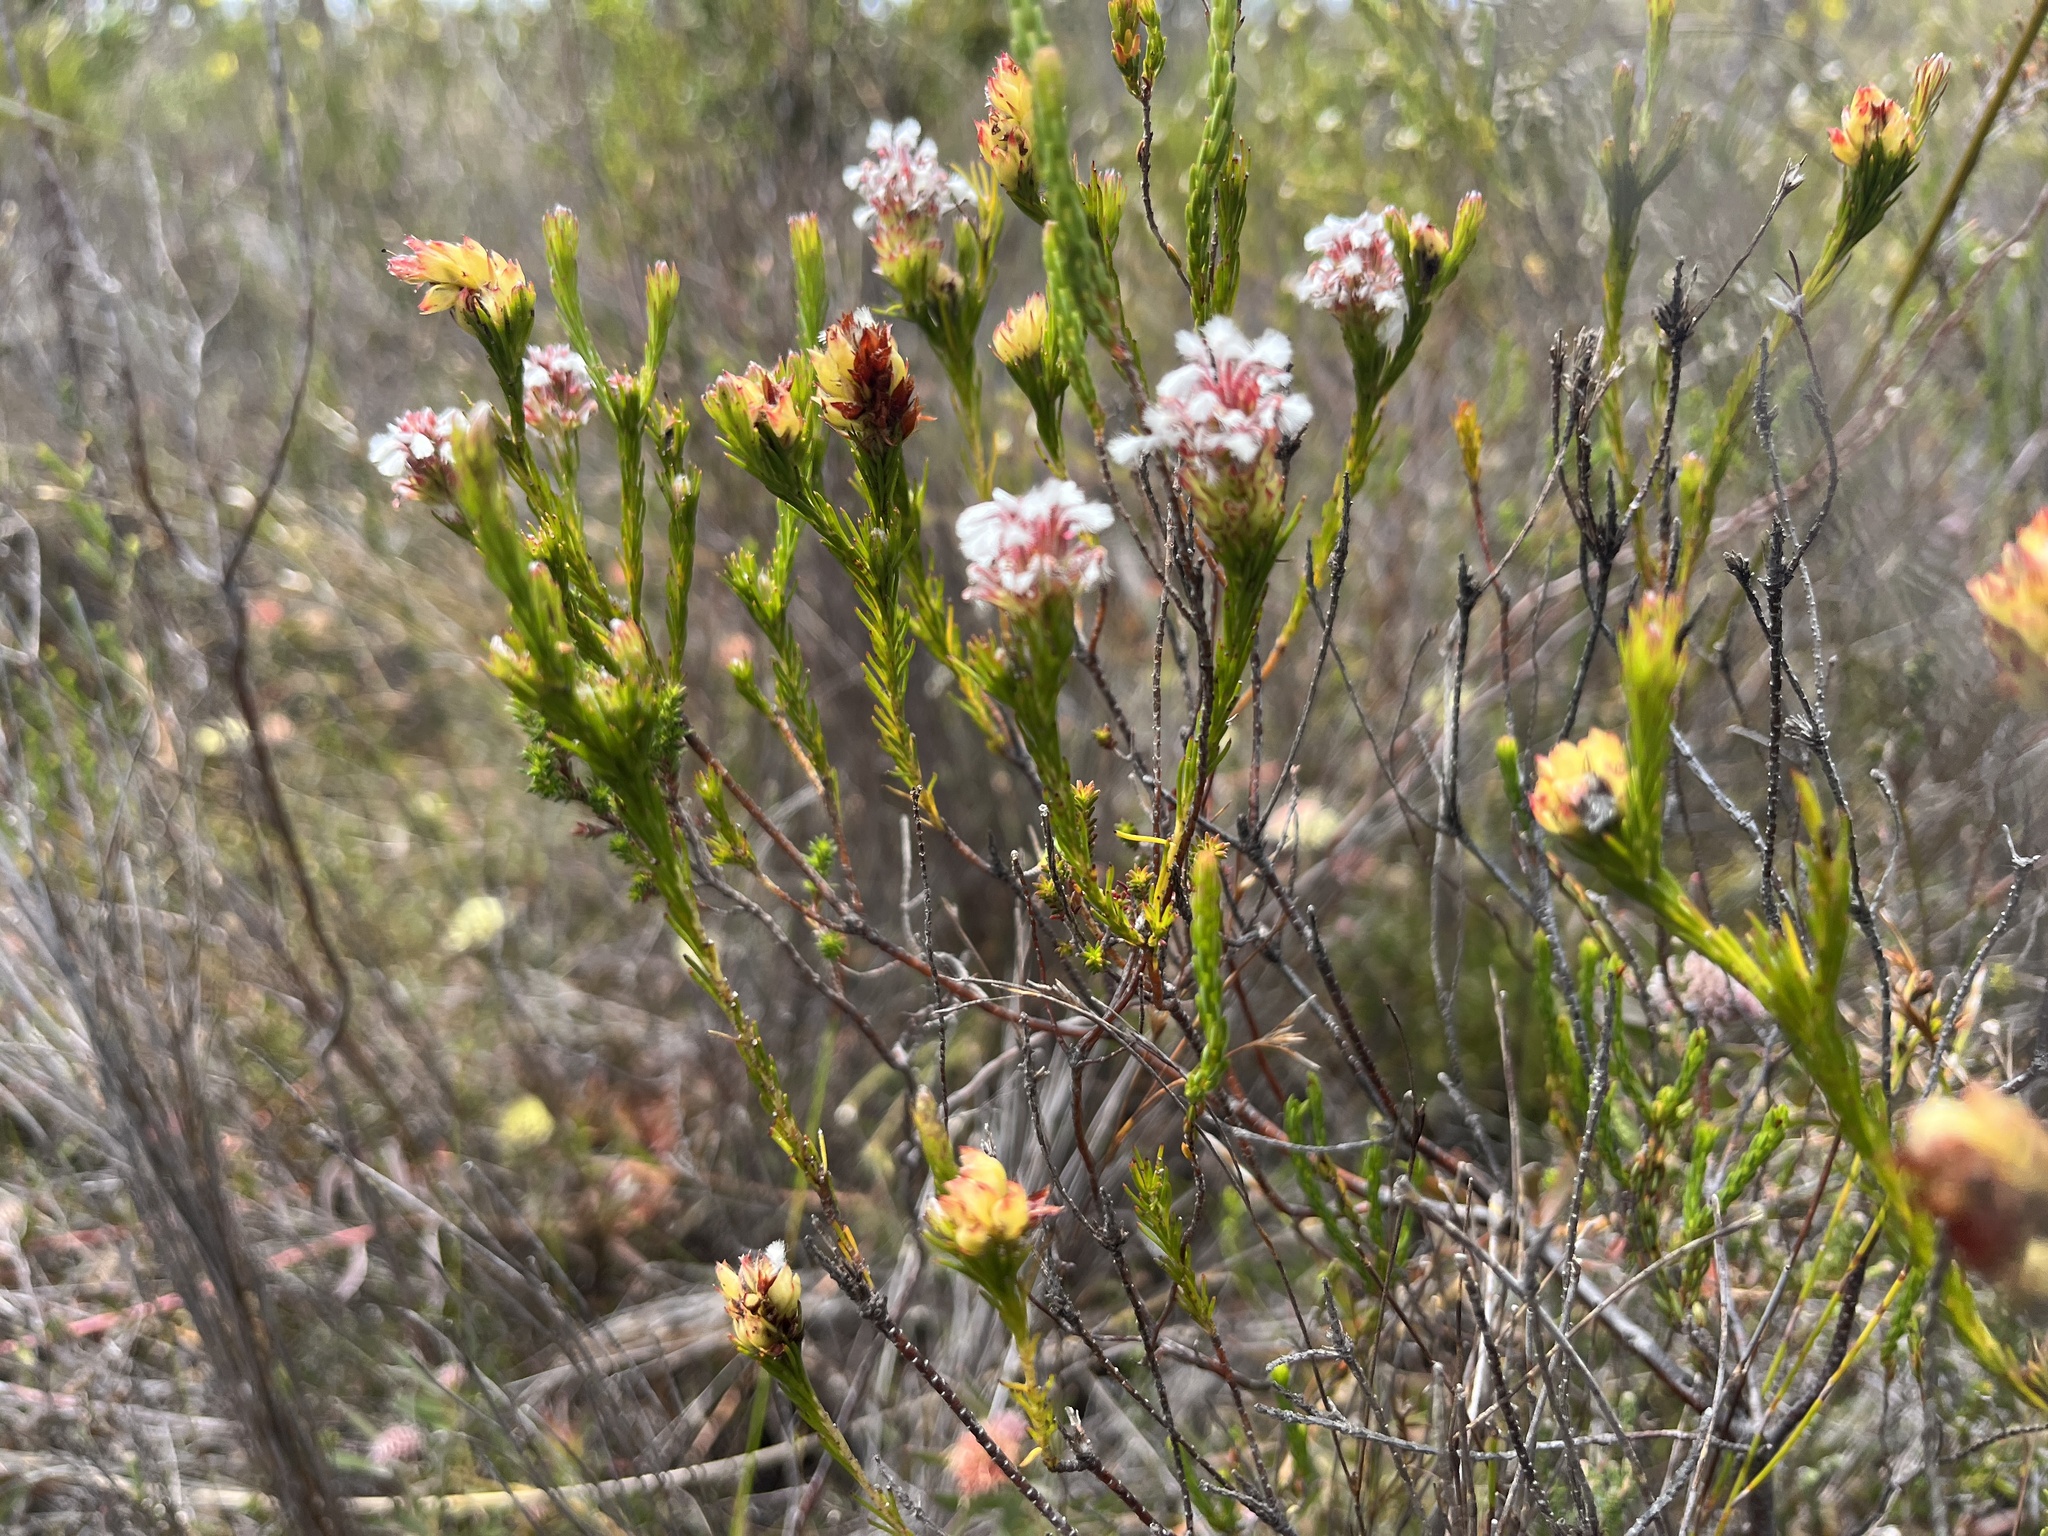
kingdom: Plantae
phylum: Tracheophyta
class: Magnoliopsida
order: Proteales
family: Proteaceae
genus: Spatalla
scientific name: Spatalla squamata
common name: Silky spoon
